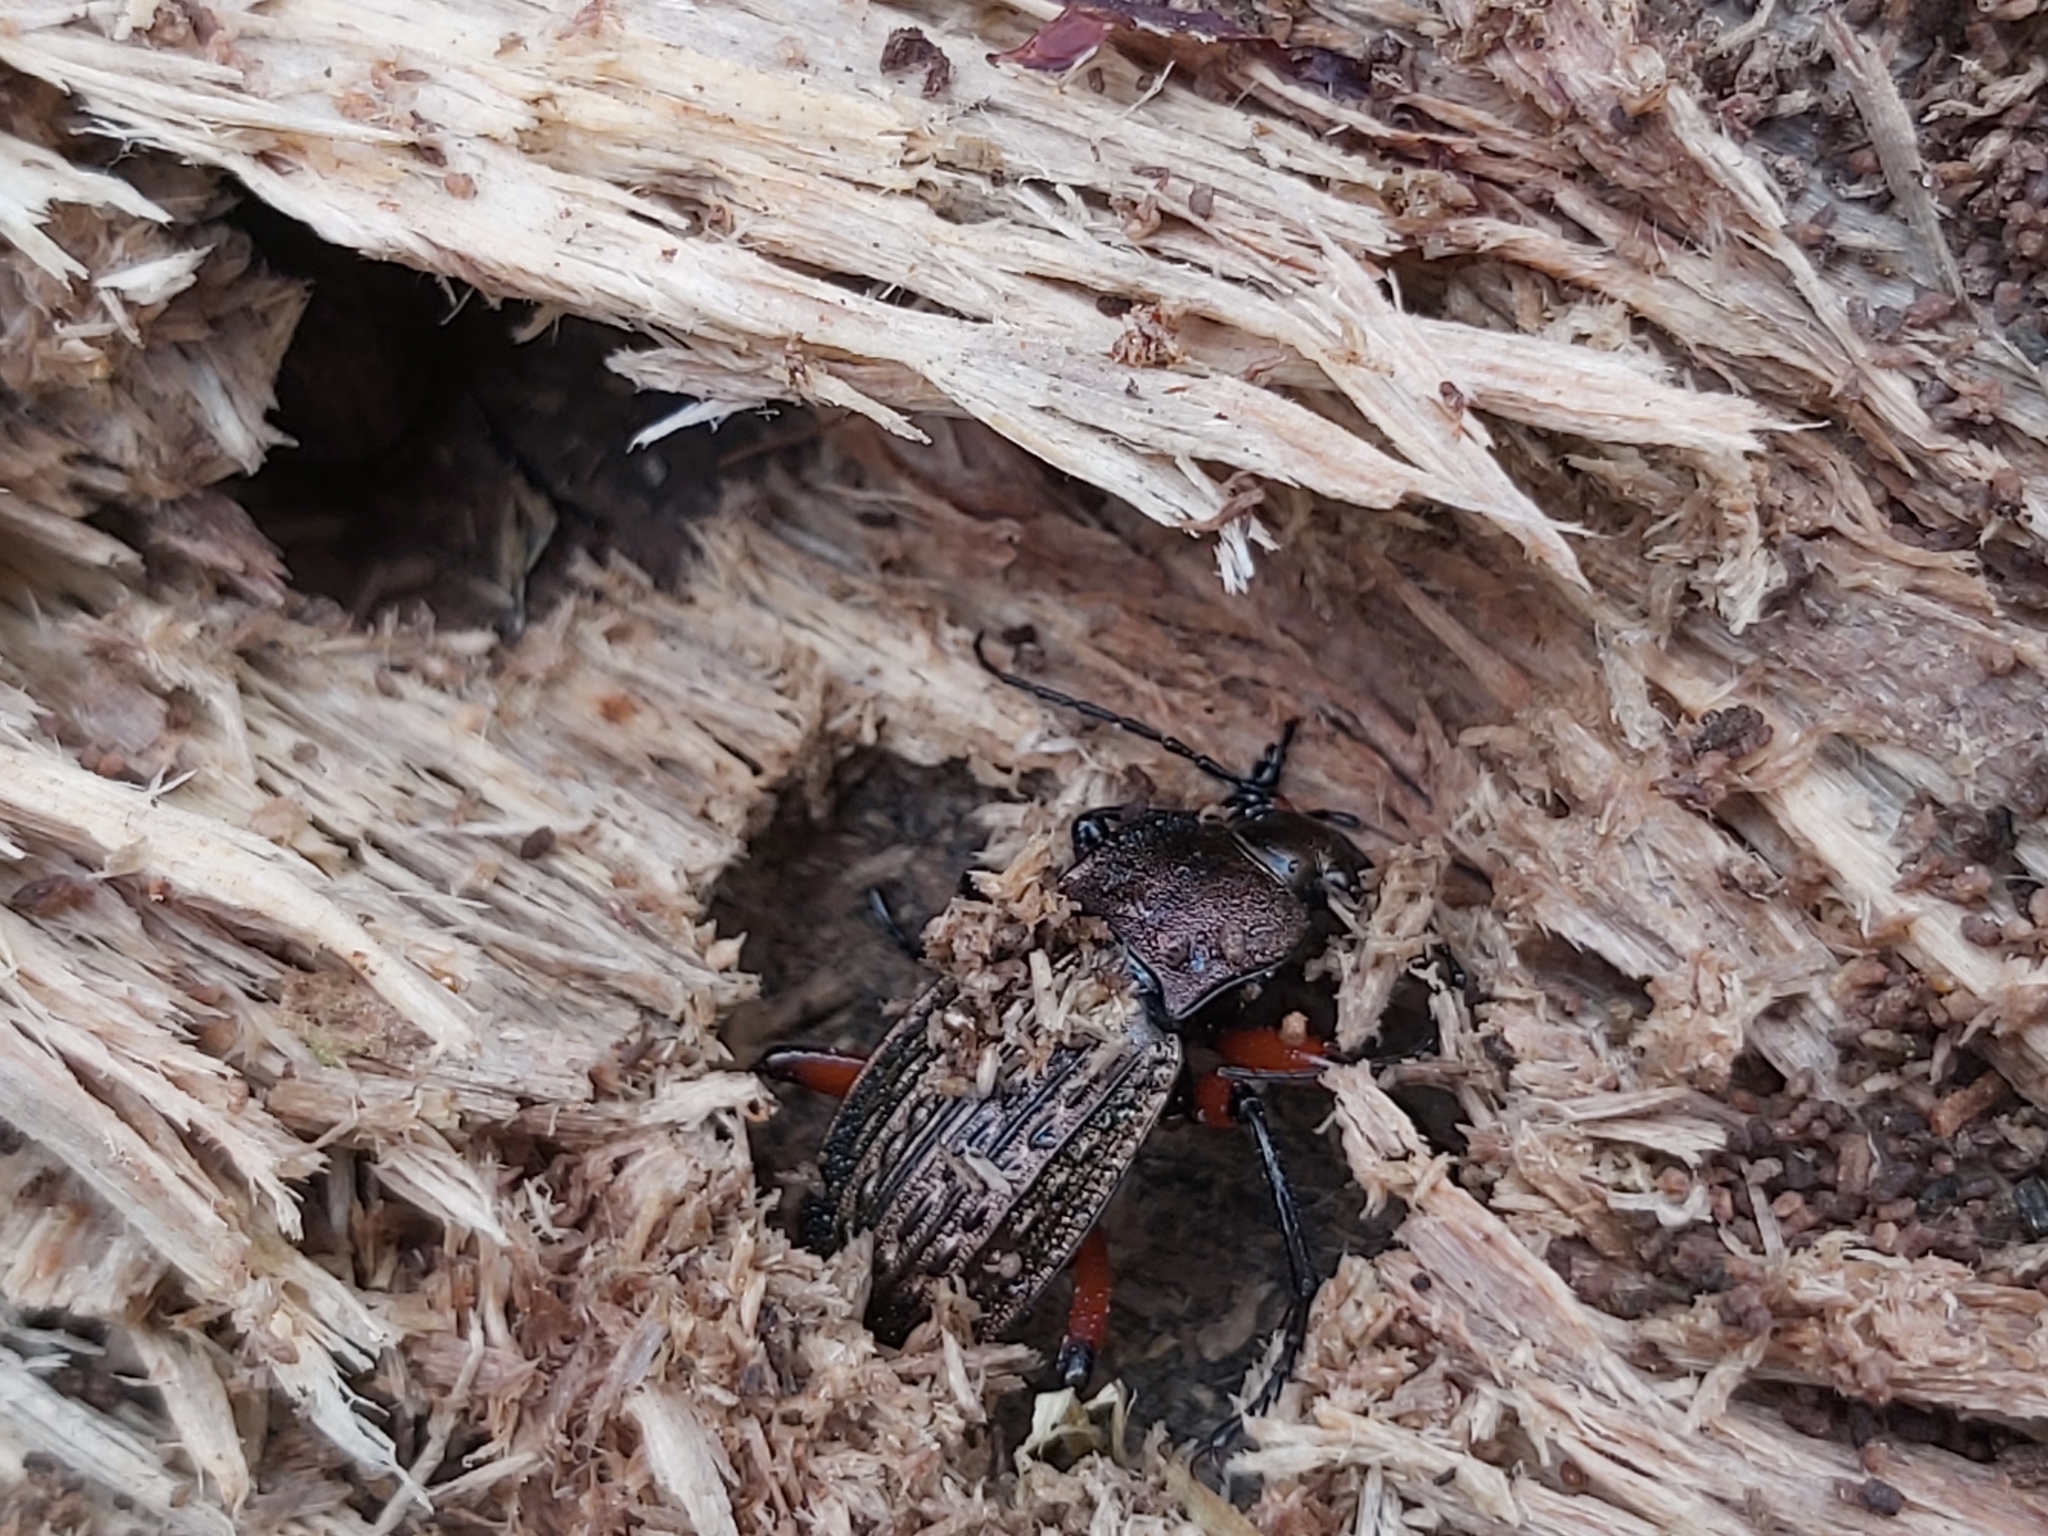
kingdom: Animalia
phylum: Arthropoda
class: Insecta
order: Coleoptera
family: Carabidae
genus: Carabus
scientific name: Carabus cancellatus
